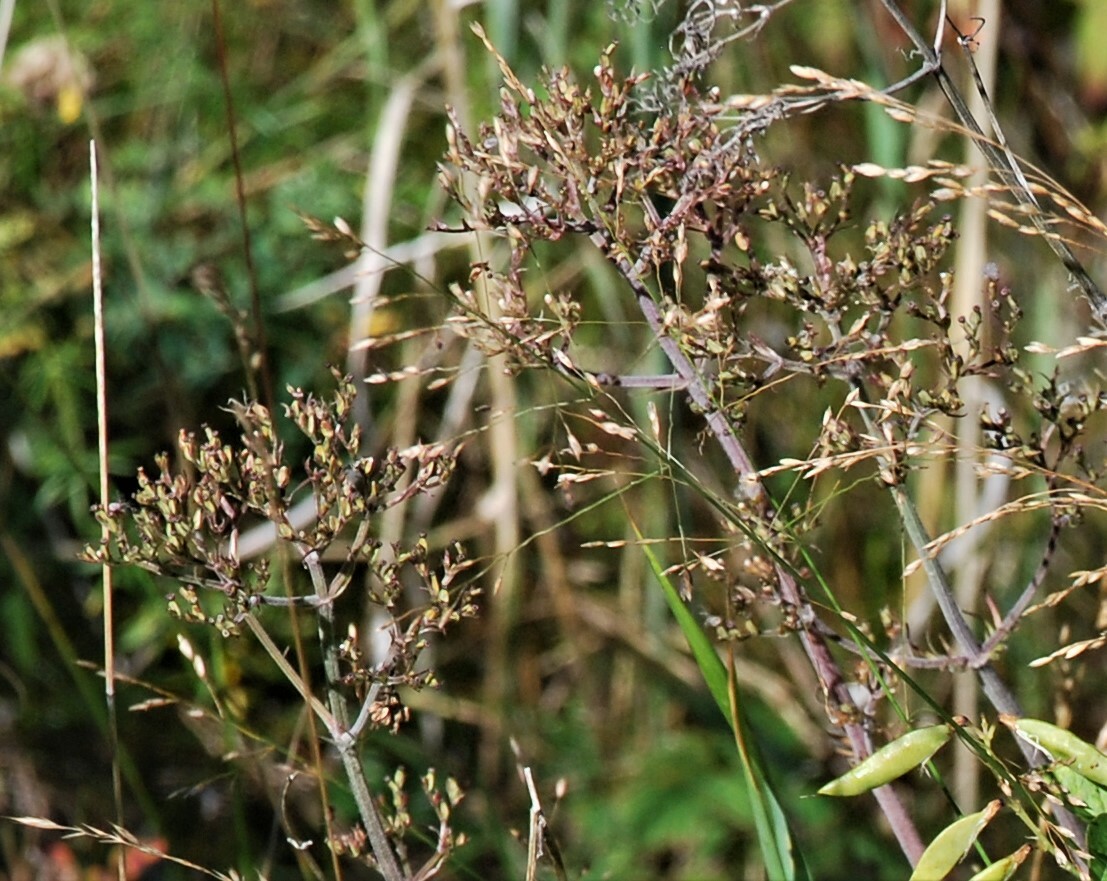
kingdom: Plantae
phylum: Tracheophyta
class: Magnoliopsida
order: Dipsacales
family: Caprifoliaceae
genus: Valeriana
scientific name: Valeriana officinalis
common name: Common valerian
